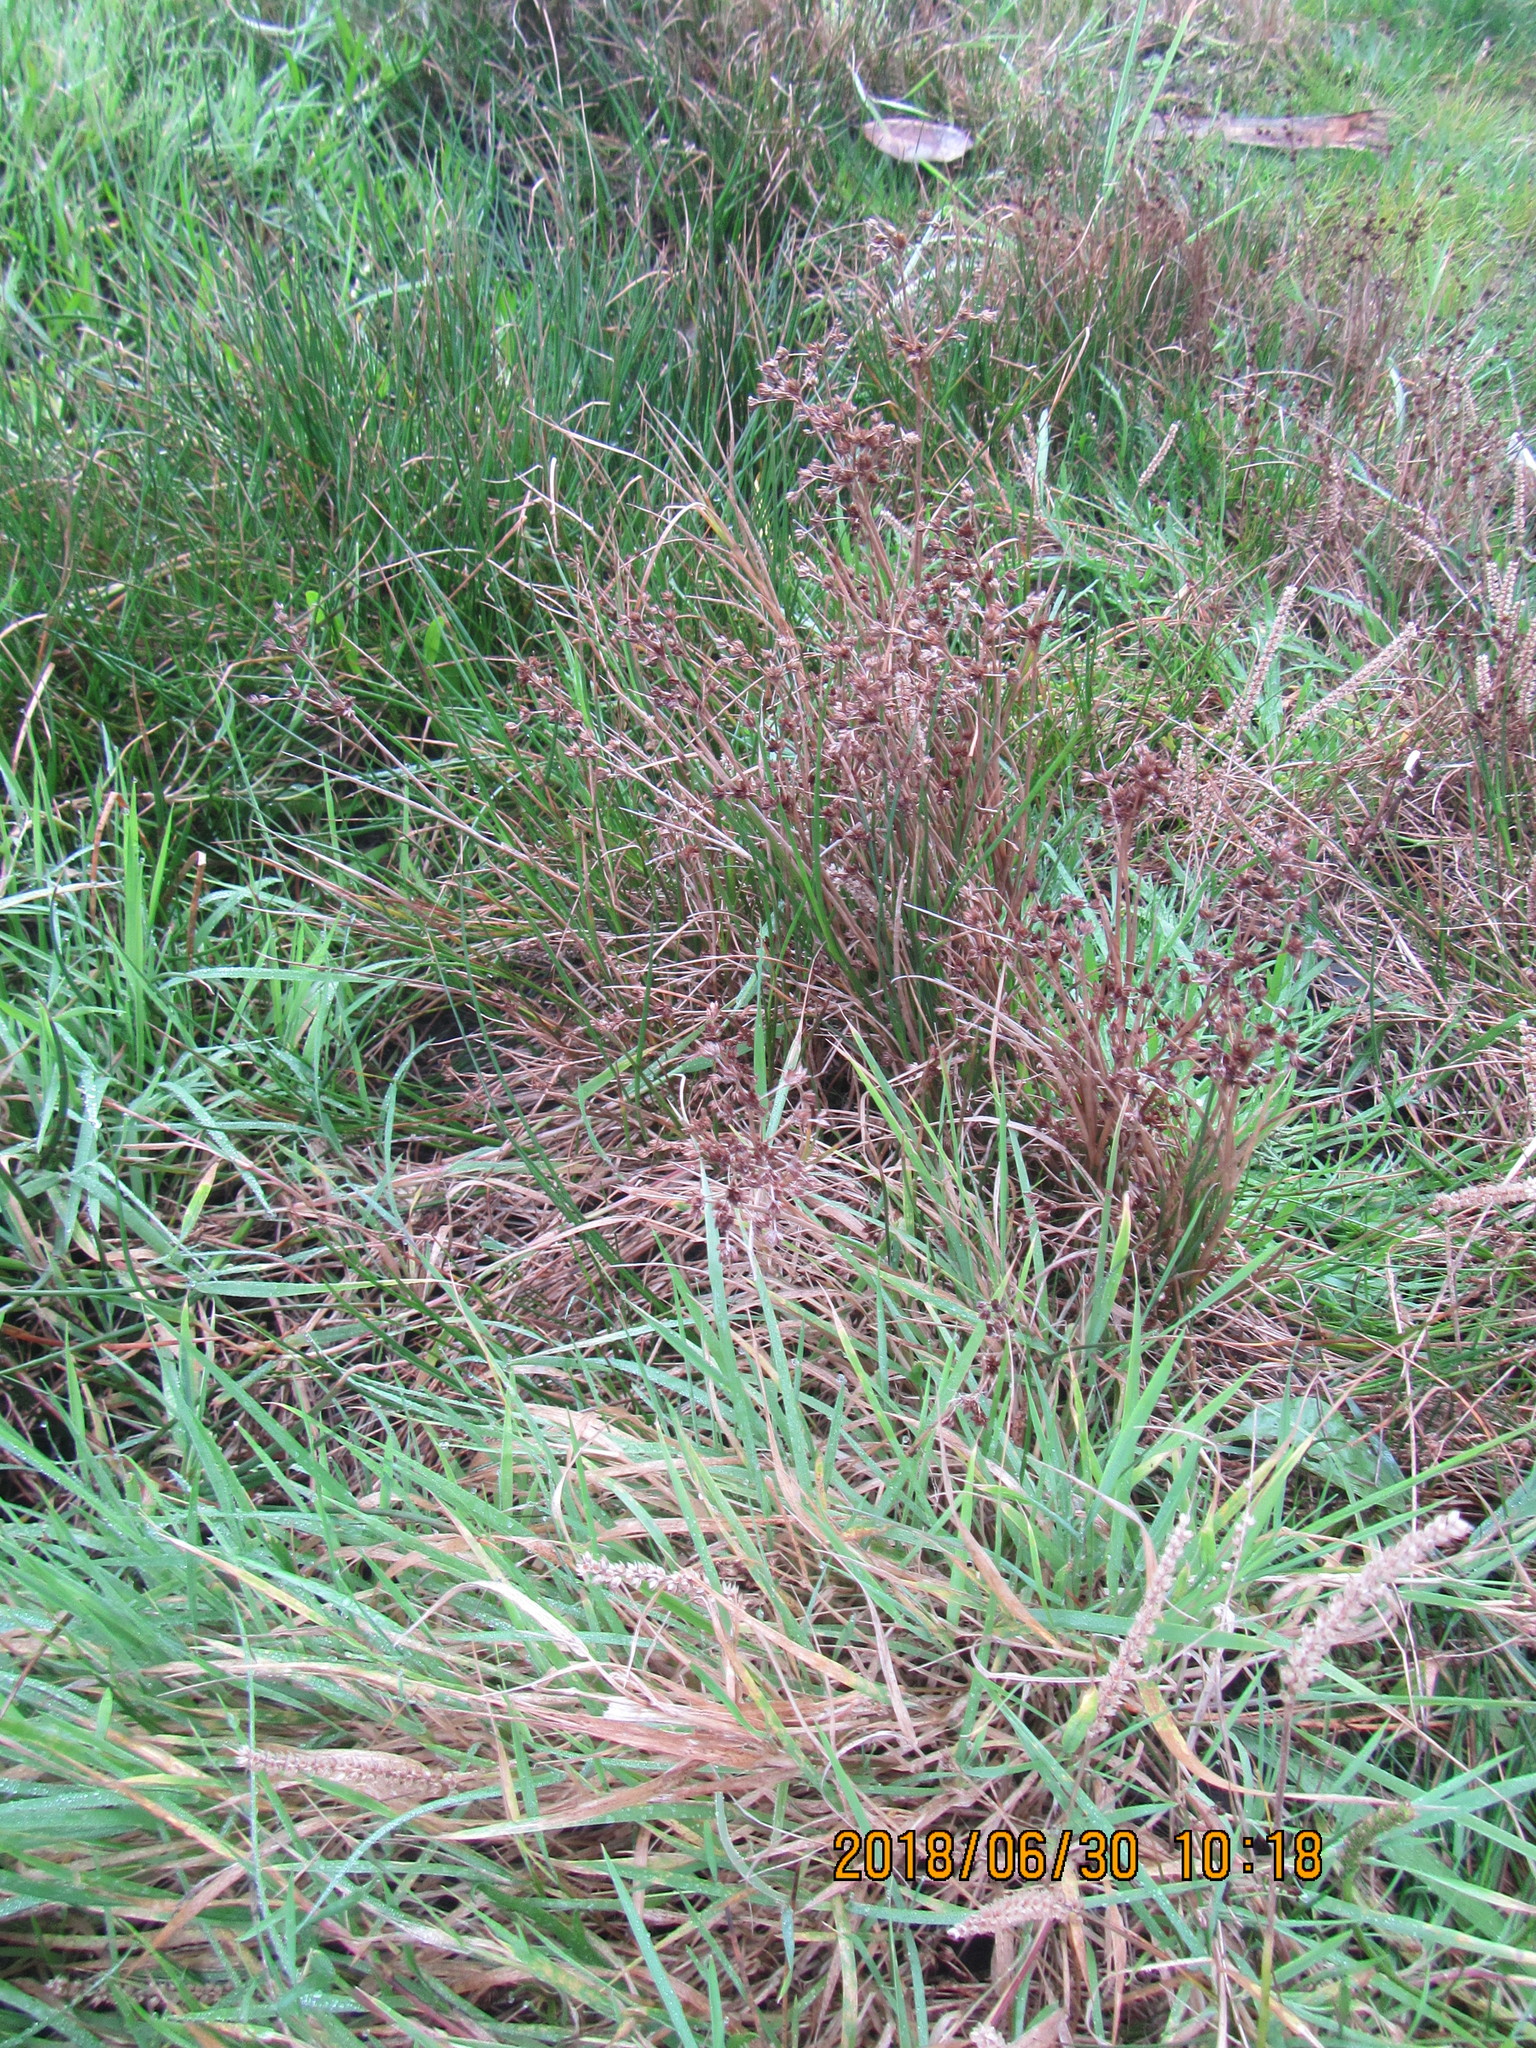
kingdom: Plantae
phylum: Tracheophyta
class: Liliopsida
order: Poales
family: Juncaceae
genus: Juncus
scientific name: Juncus articulatus
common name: Jointed rush
